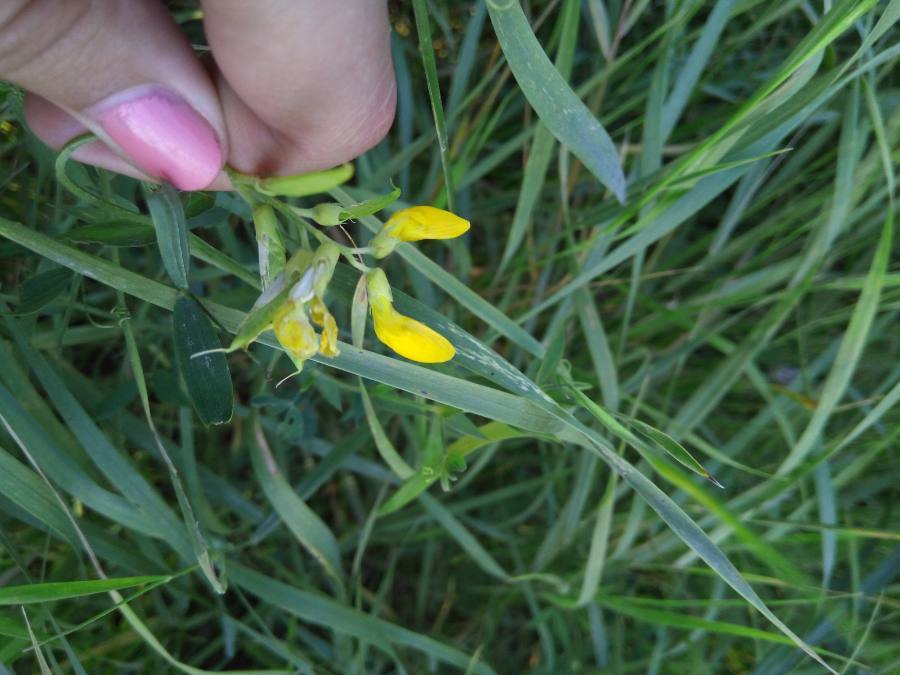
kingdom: Plantae
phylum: Tracheophyta
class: Magnoliopsida
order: Fabales
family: Fabaceae
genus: Lathyrus
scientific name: Lathyrus pratensis
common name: Meadow vetchling
